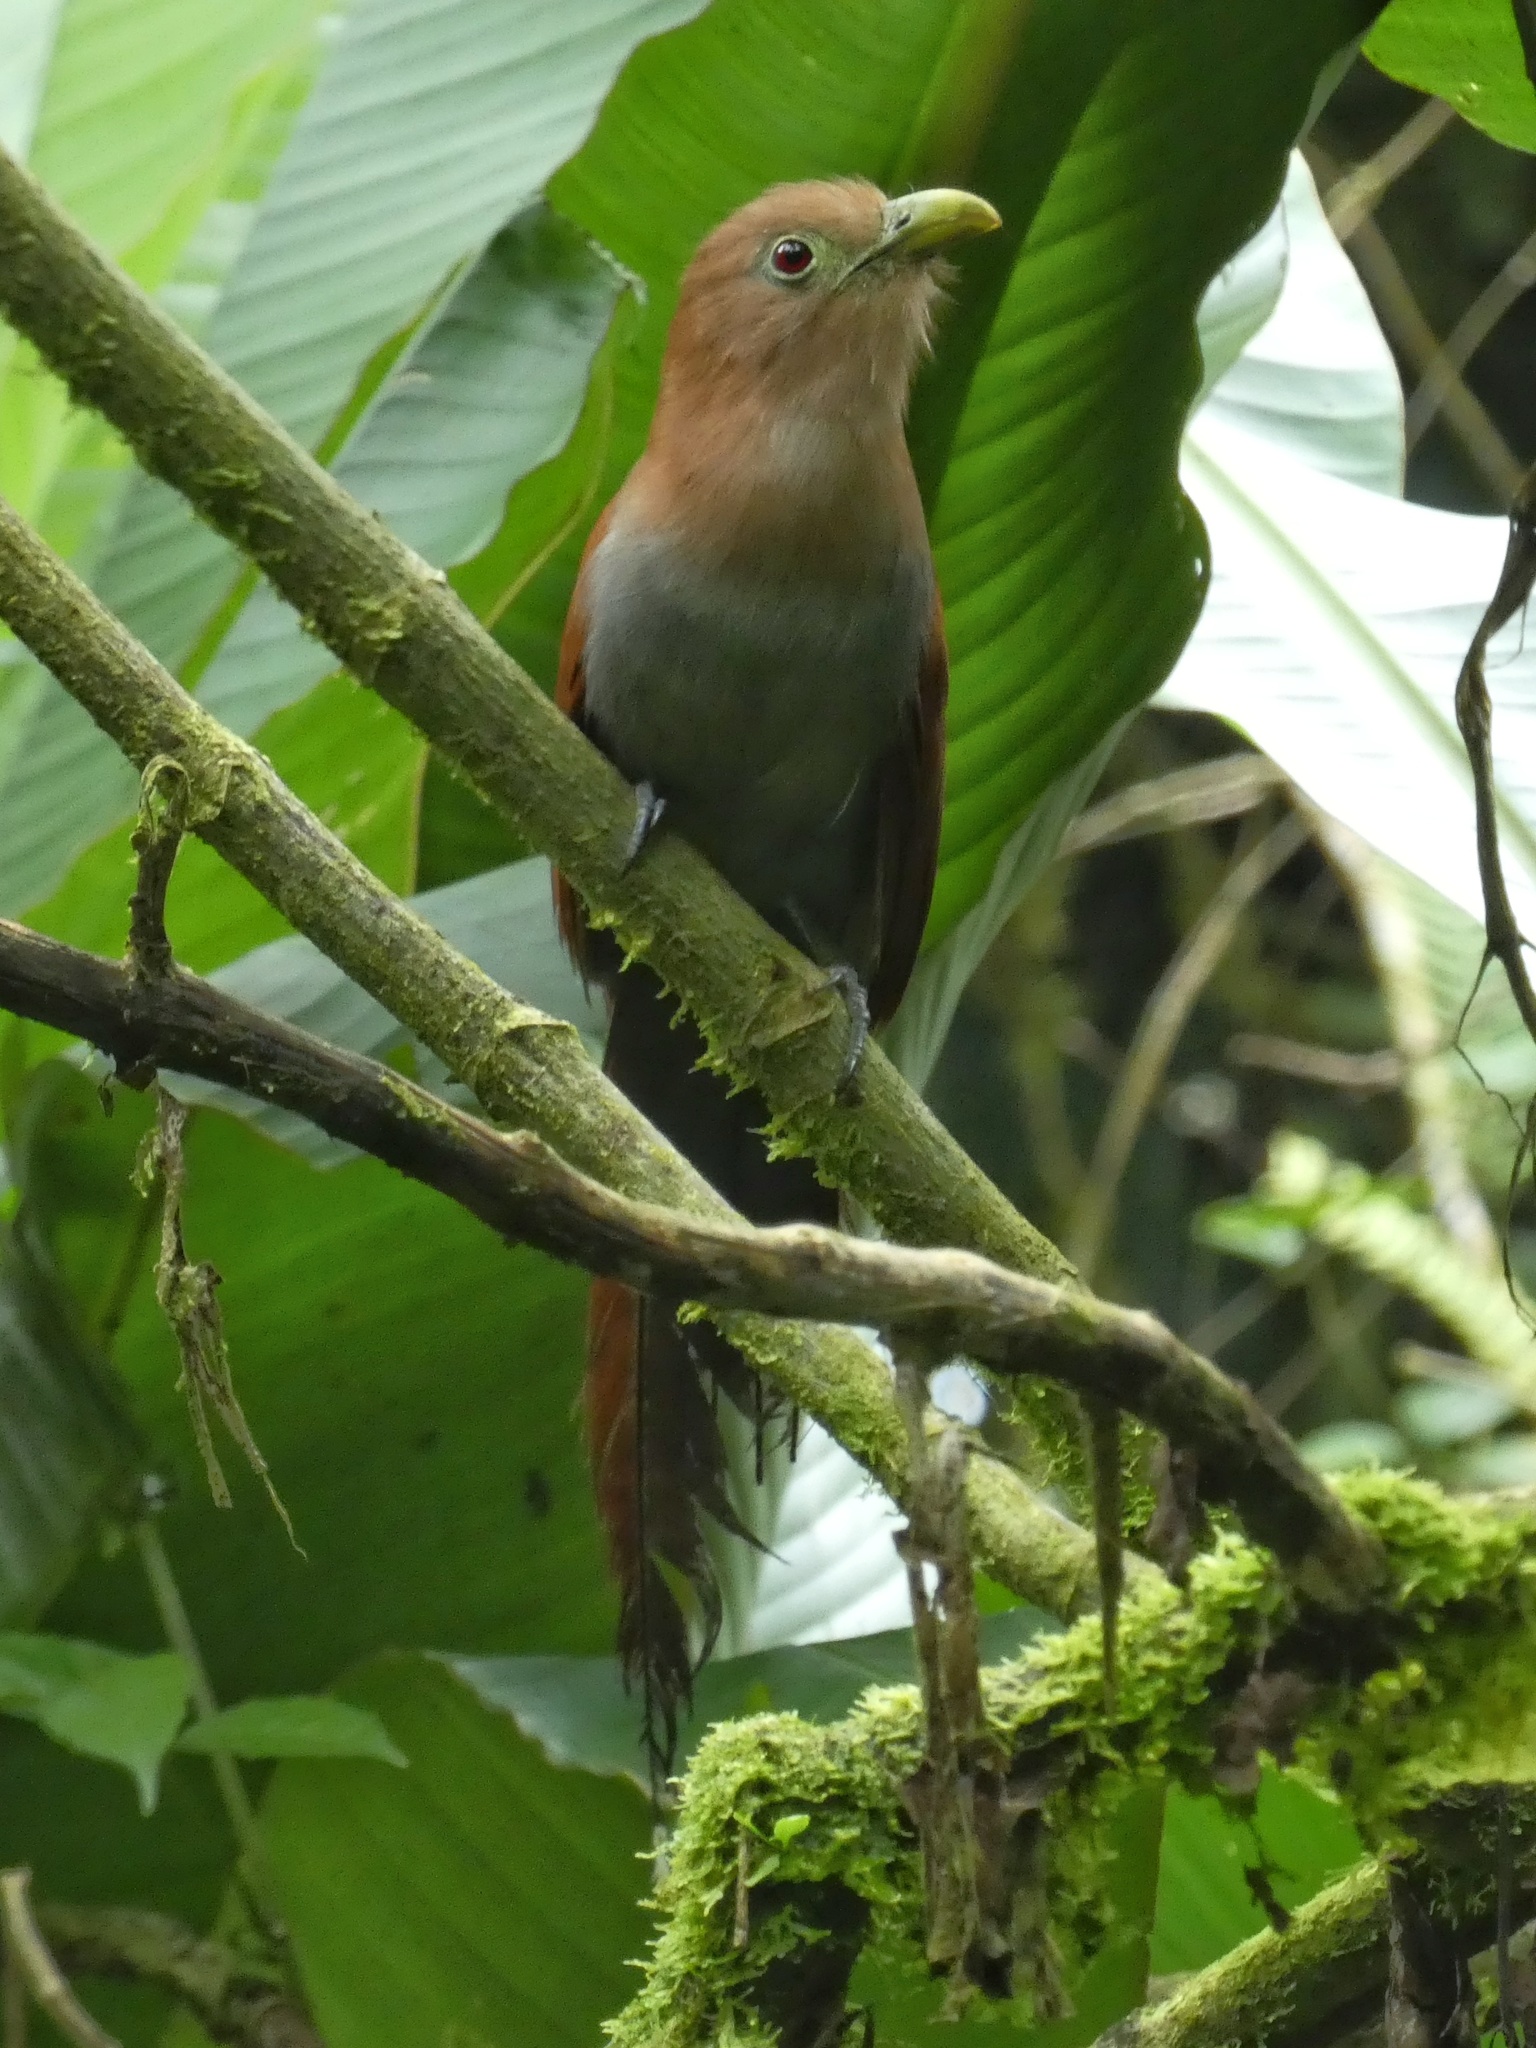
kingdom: Animalia
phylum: Chordata
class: Aves
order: Cuculiformes
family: Cuculidae
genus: Piaya
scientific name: Piaya cayana
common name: Squirrel cuckoo
